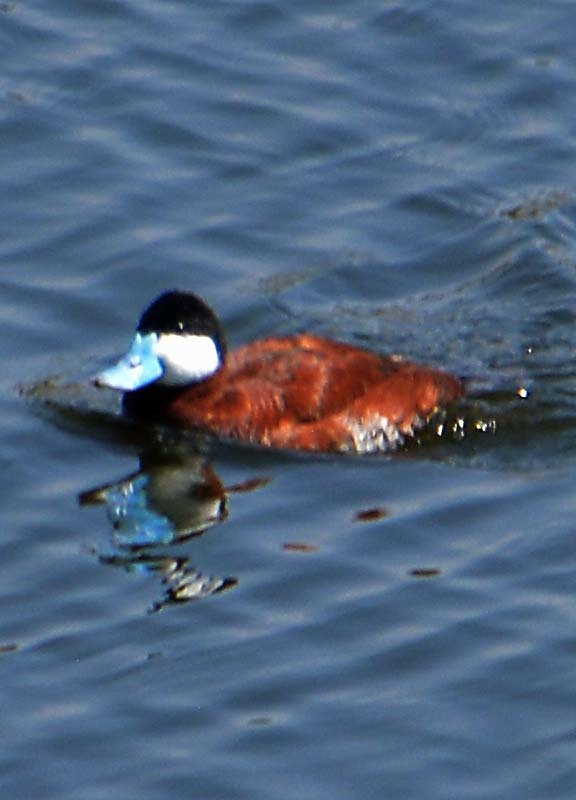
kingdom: Animalia
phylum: Chordata
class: Aves
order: Anseriformes
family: Anatidae
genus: Oxyura
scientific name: Oxyura jamaicensis
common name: Ruddy duck
